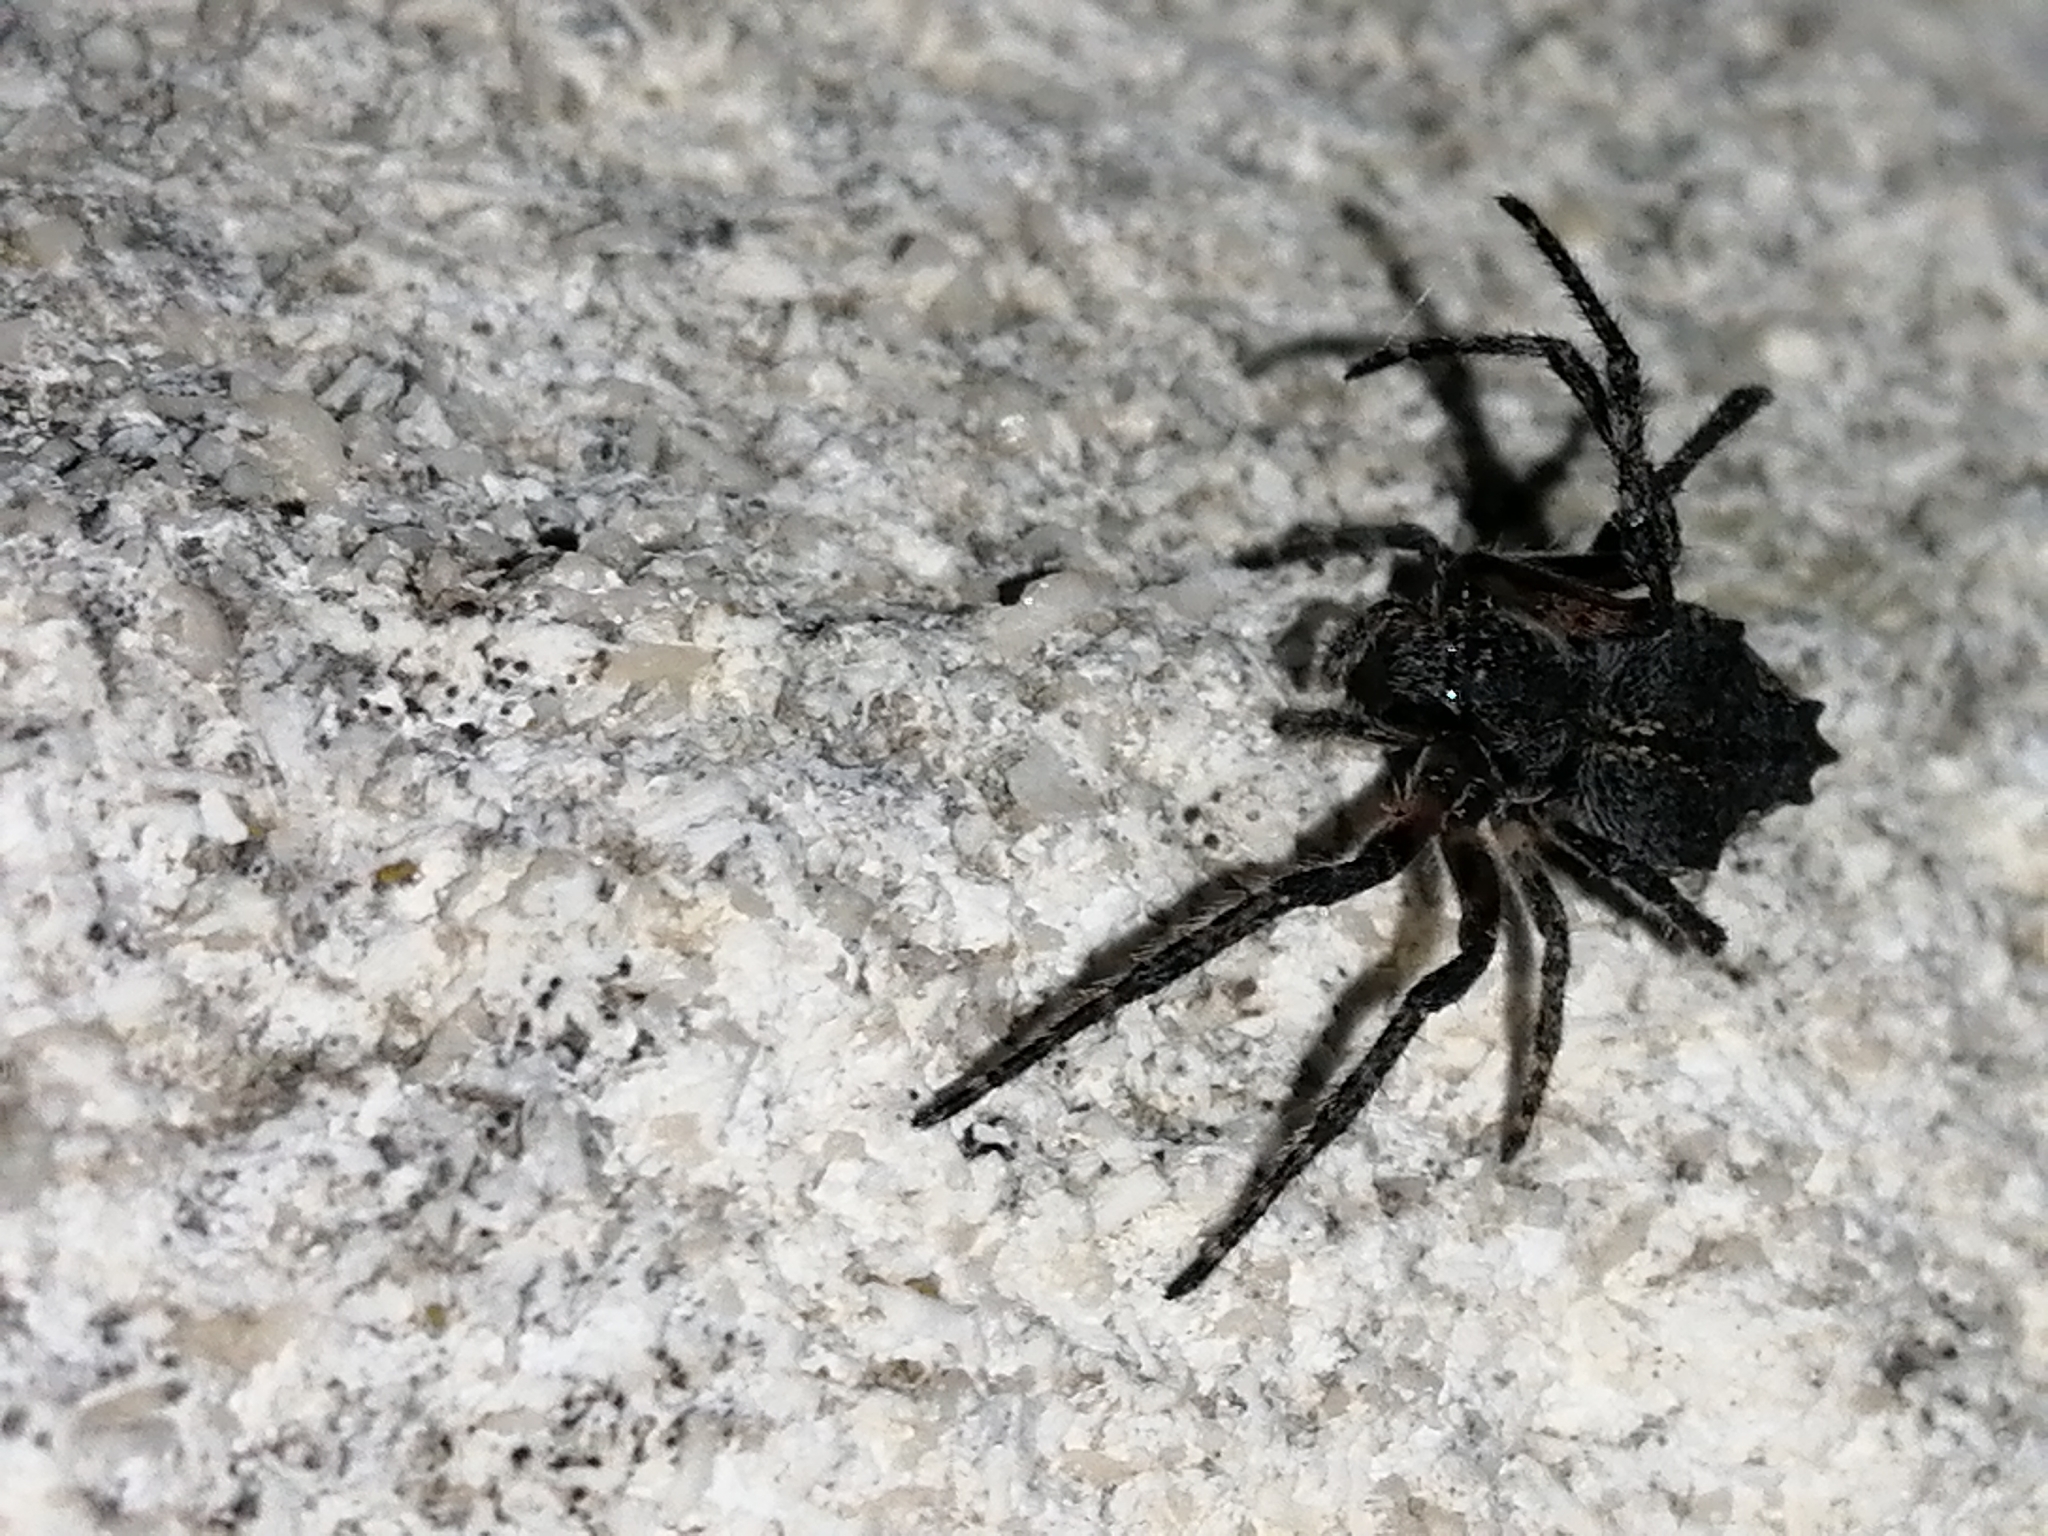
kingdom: Animalia
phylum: Arthropoda
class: Arachnida
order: Araneae
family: Araneidae
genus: Eriophora
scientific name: Eriophora pustulosa
